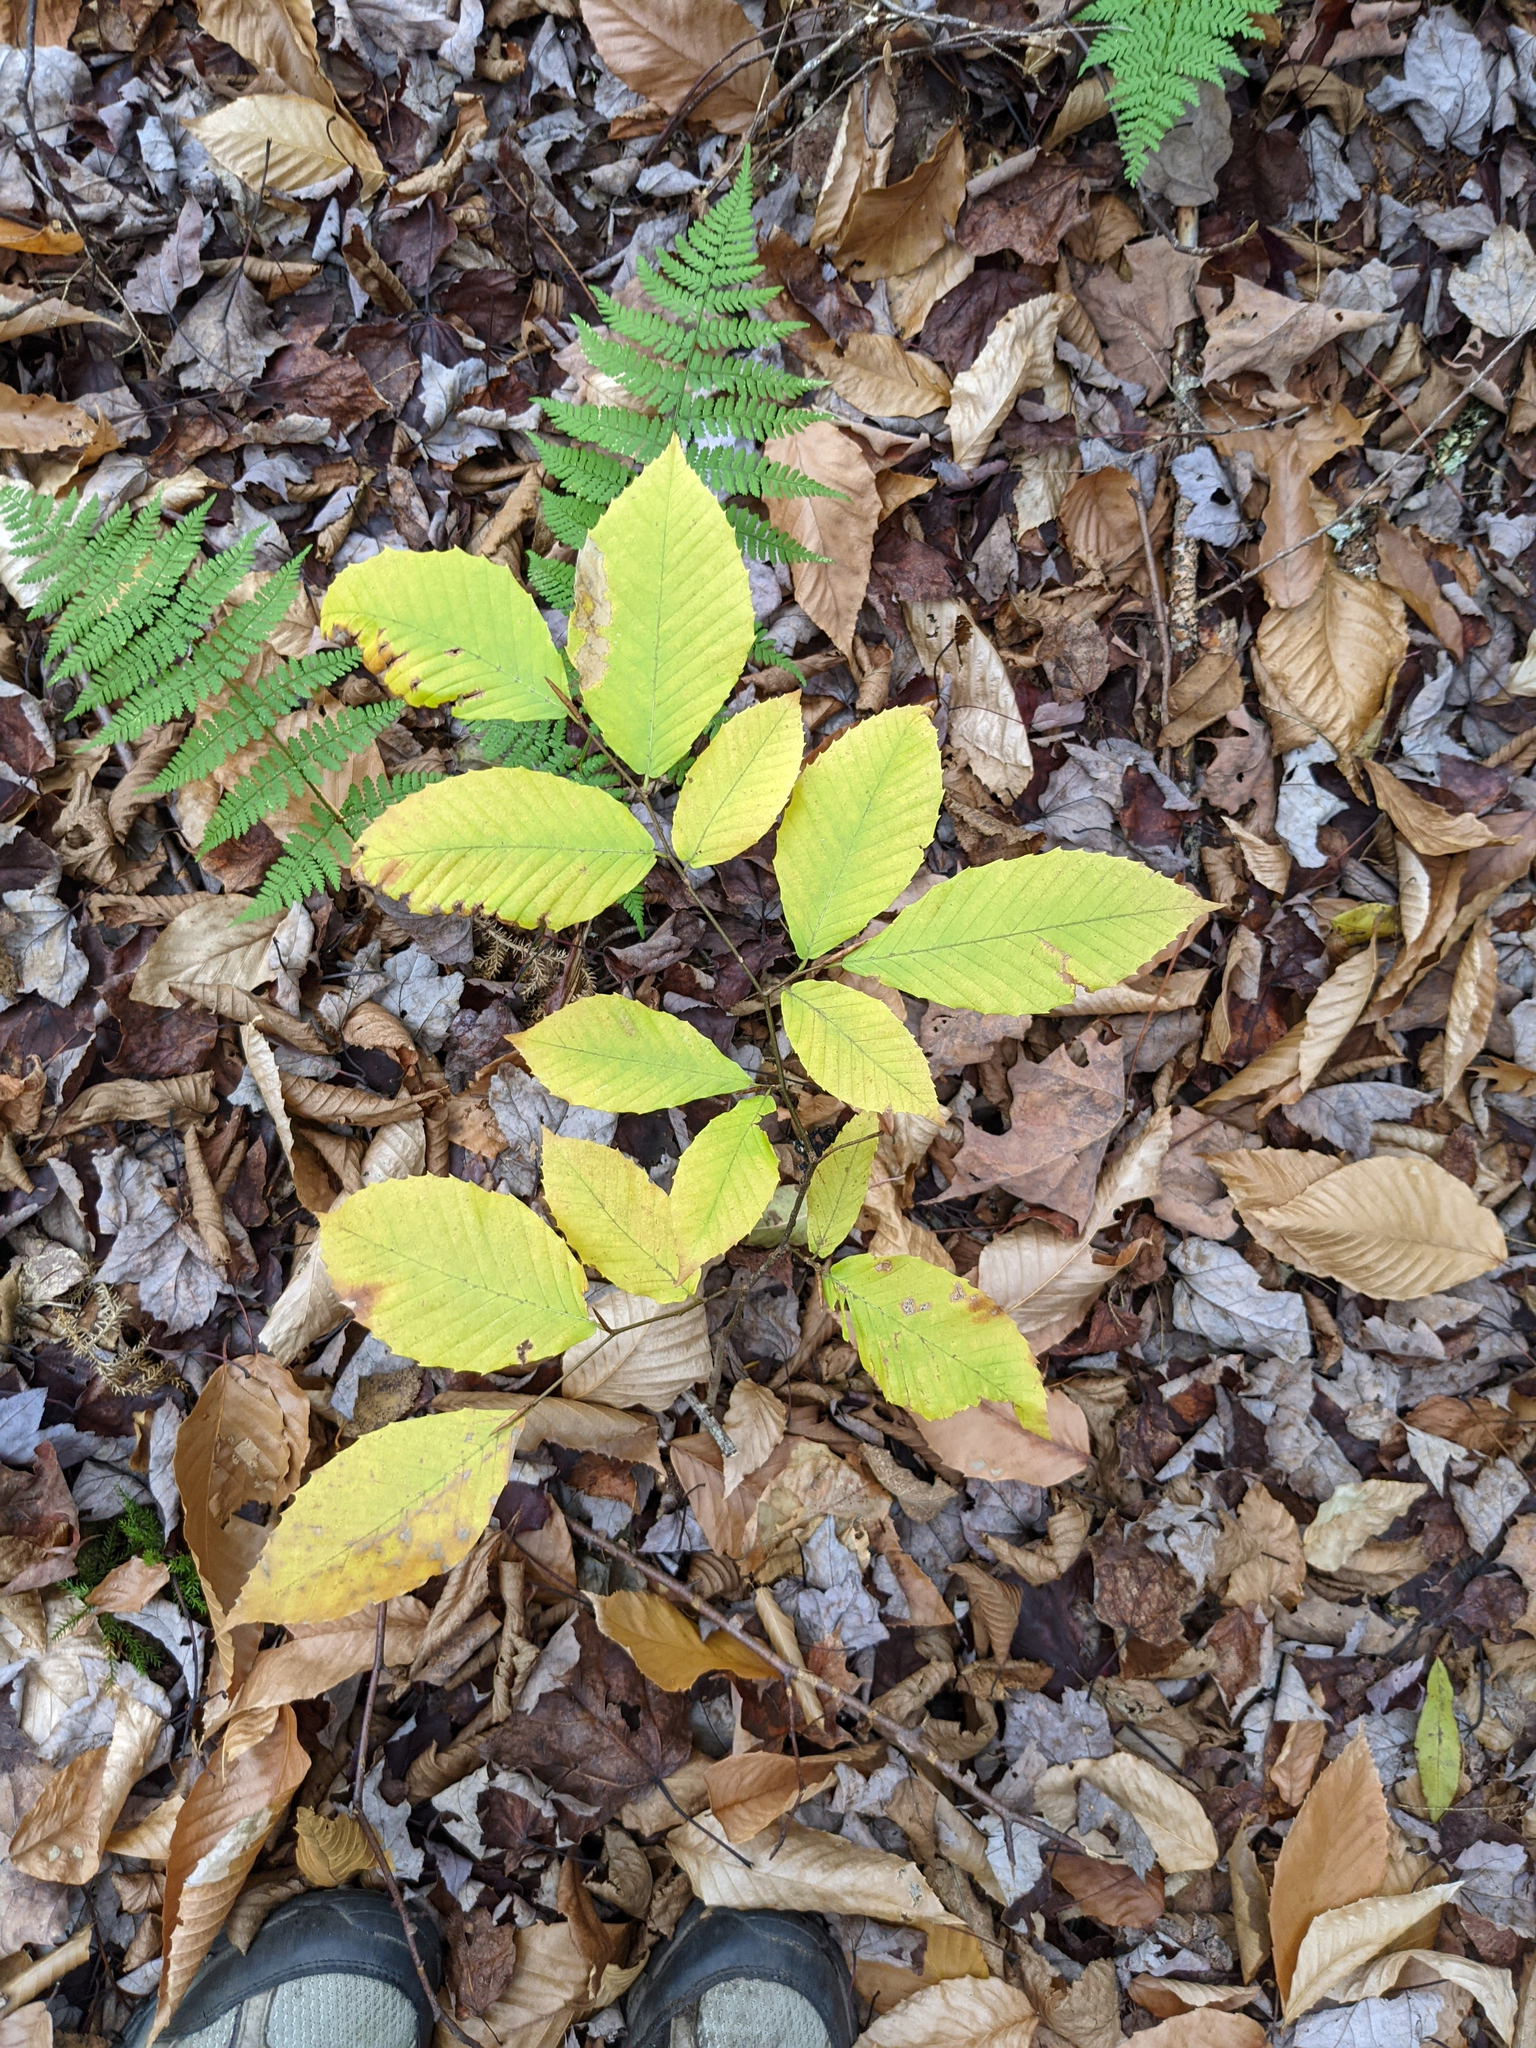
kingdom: Plantae
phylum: Tracheophyta
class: Magnoliopsida
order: Fagales
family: Fagaceae
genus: Fagus
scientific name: Fagus grandifolia
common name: American beech
